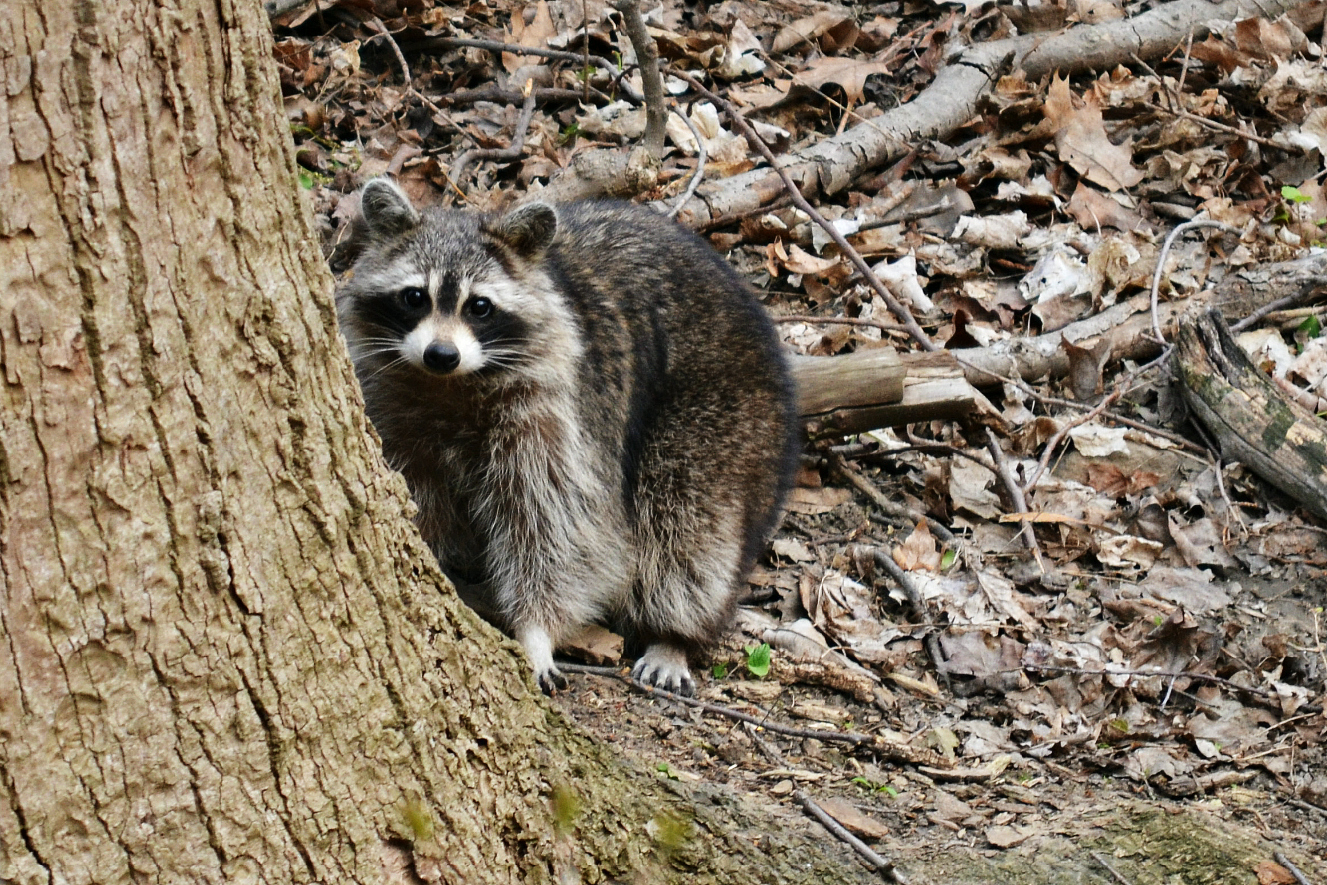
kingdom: Animalia
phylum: Chordata
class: Mammalia
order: Carnivora
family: Procyonidae
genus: Procyon
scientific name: Procyon lotor
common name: Raccoon
